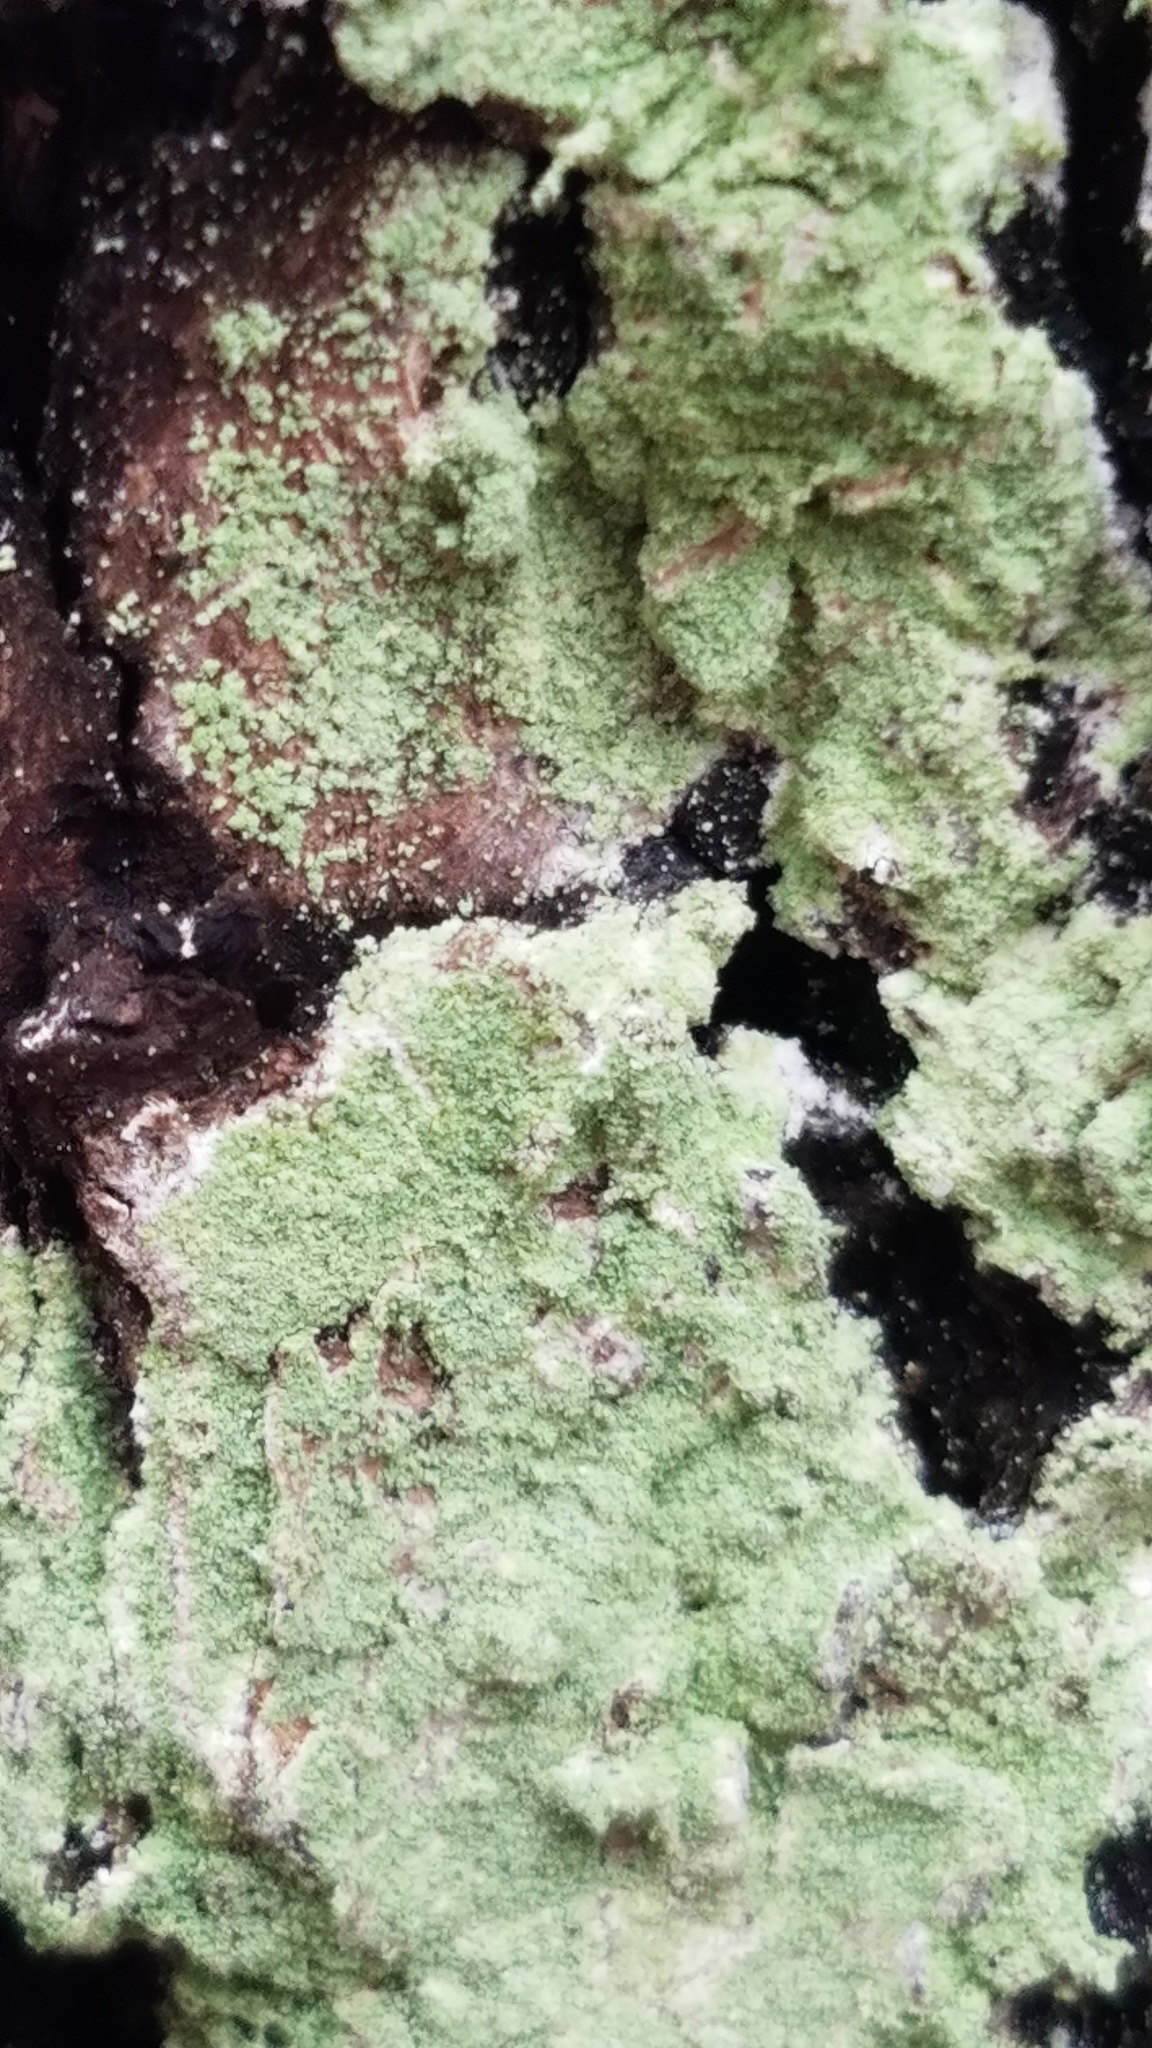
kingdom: Fungi
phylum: Ascomycota
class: Lecanoromycetes
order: Pertusariales
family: Pertusariaceae
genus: Verseghya
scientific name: Verseghya thysanophora
